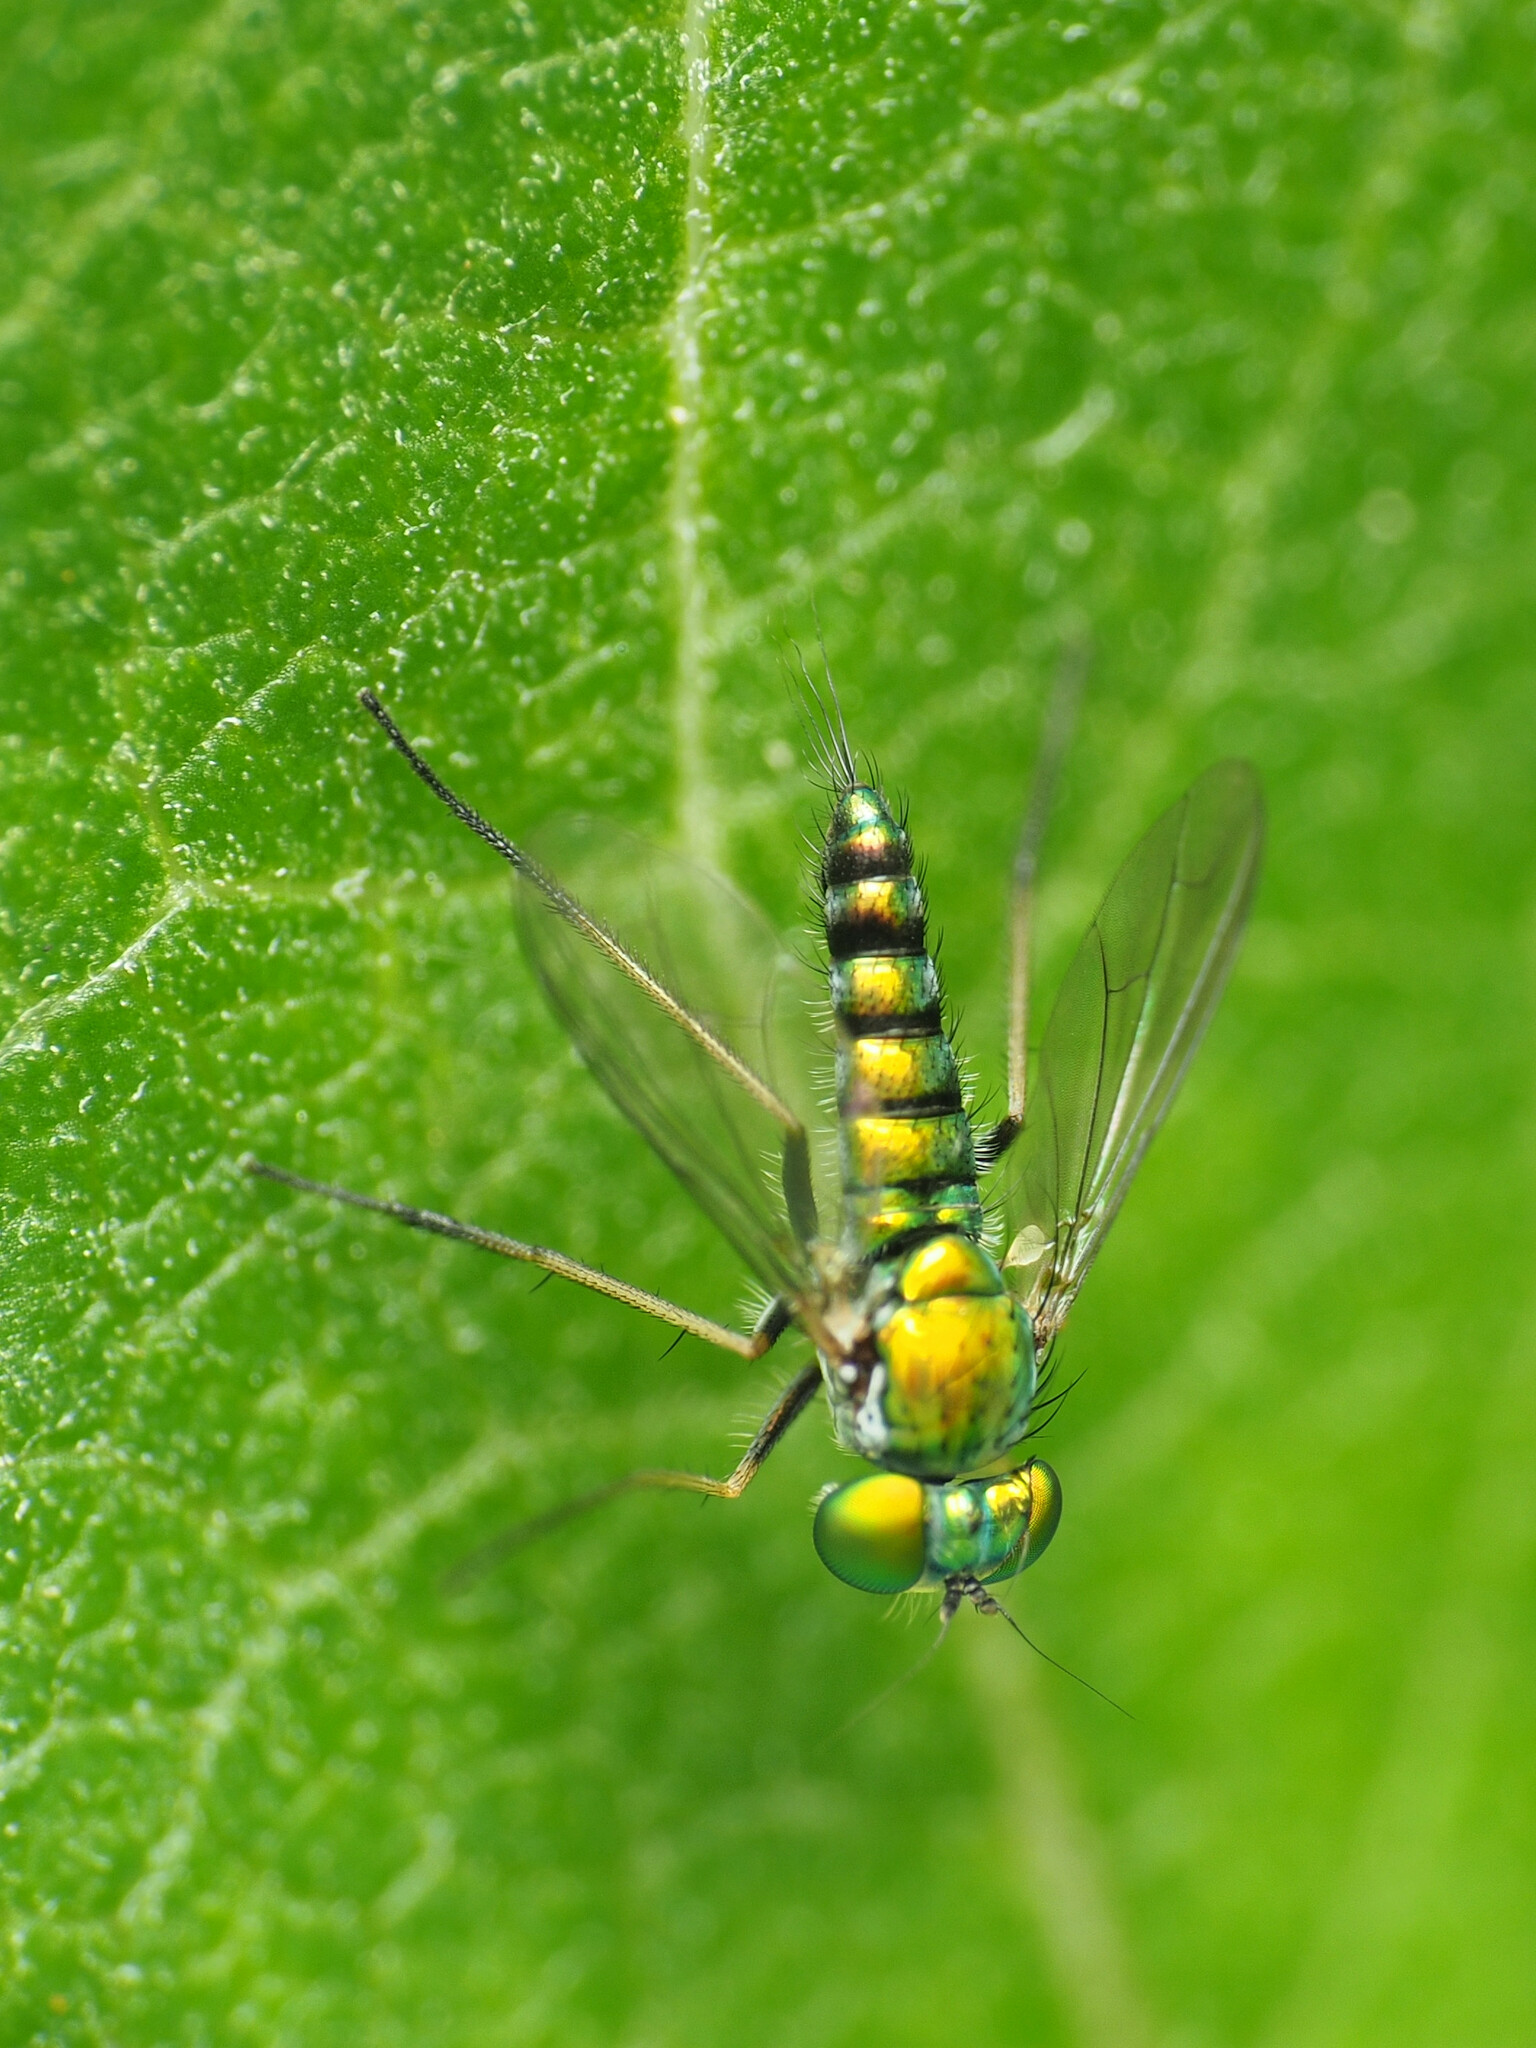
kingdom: Animalia
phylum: Arthropoda
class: Insecta
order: Diptera
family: Dolichopodidae
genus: Condylostylus
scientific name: Condylostylus caudatus
